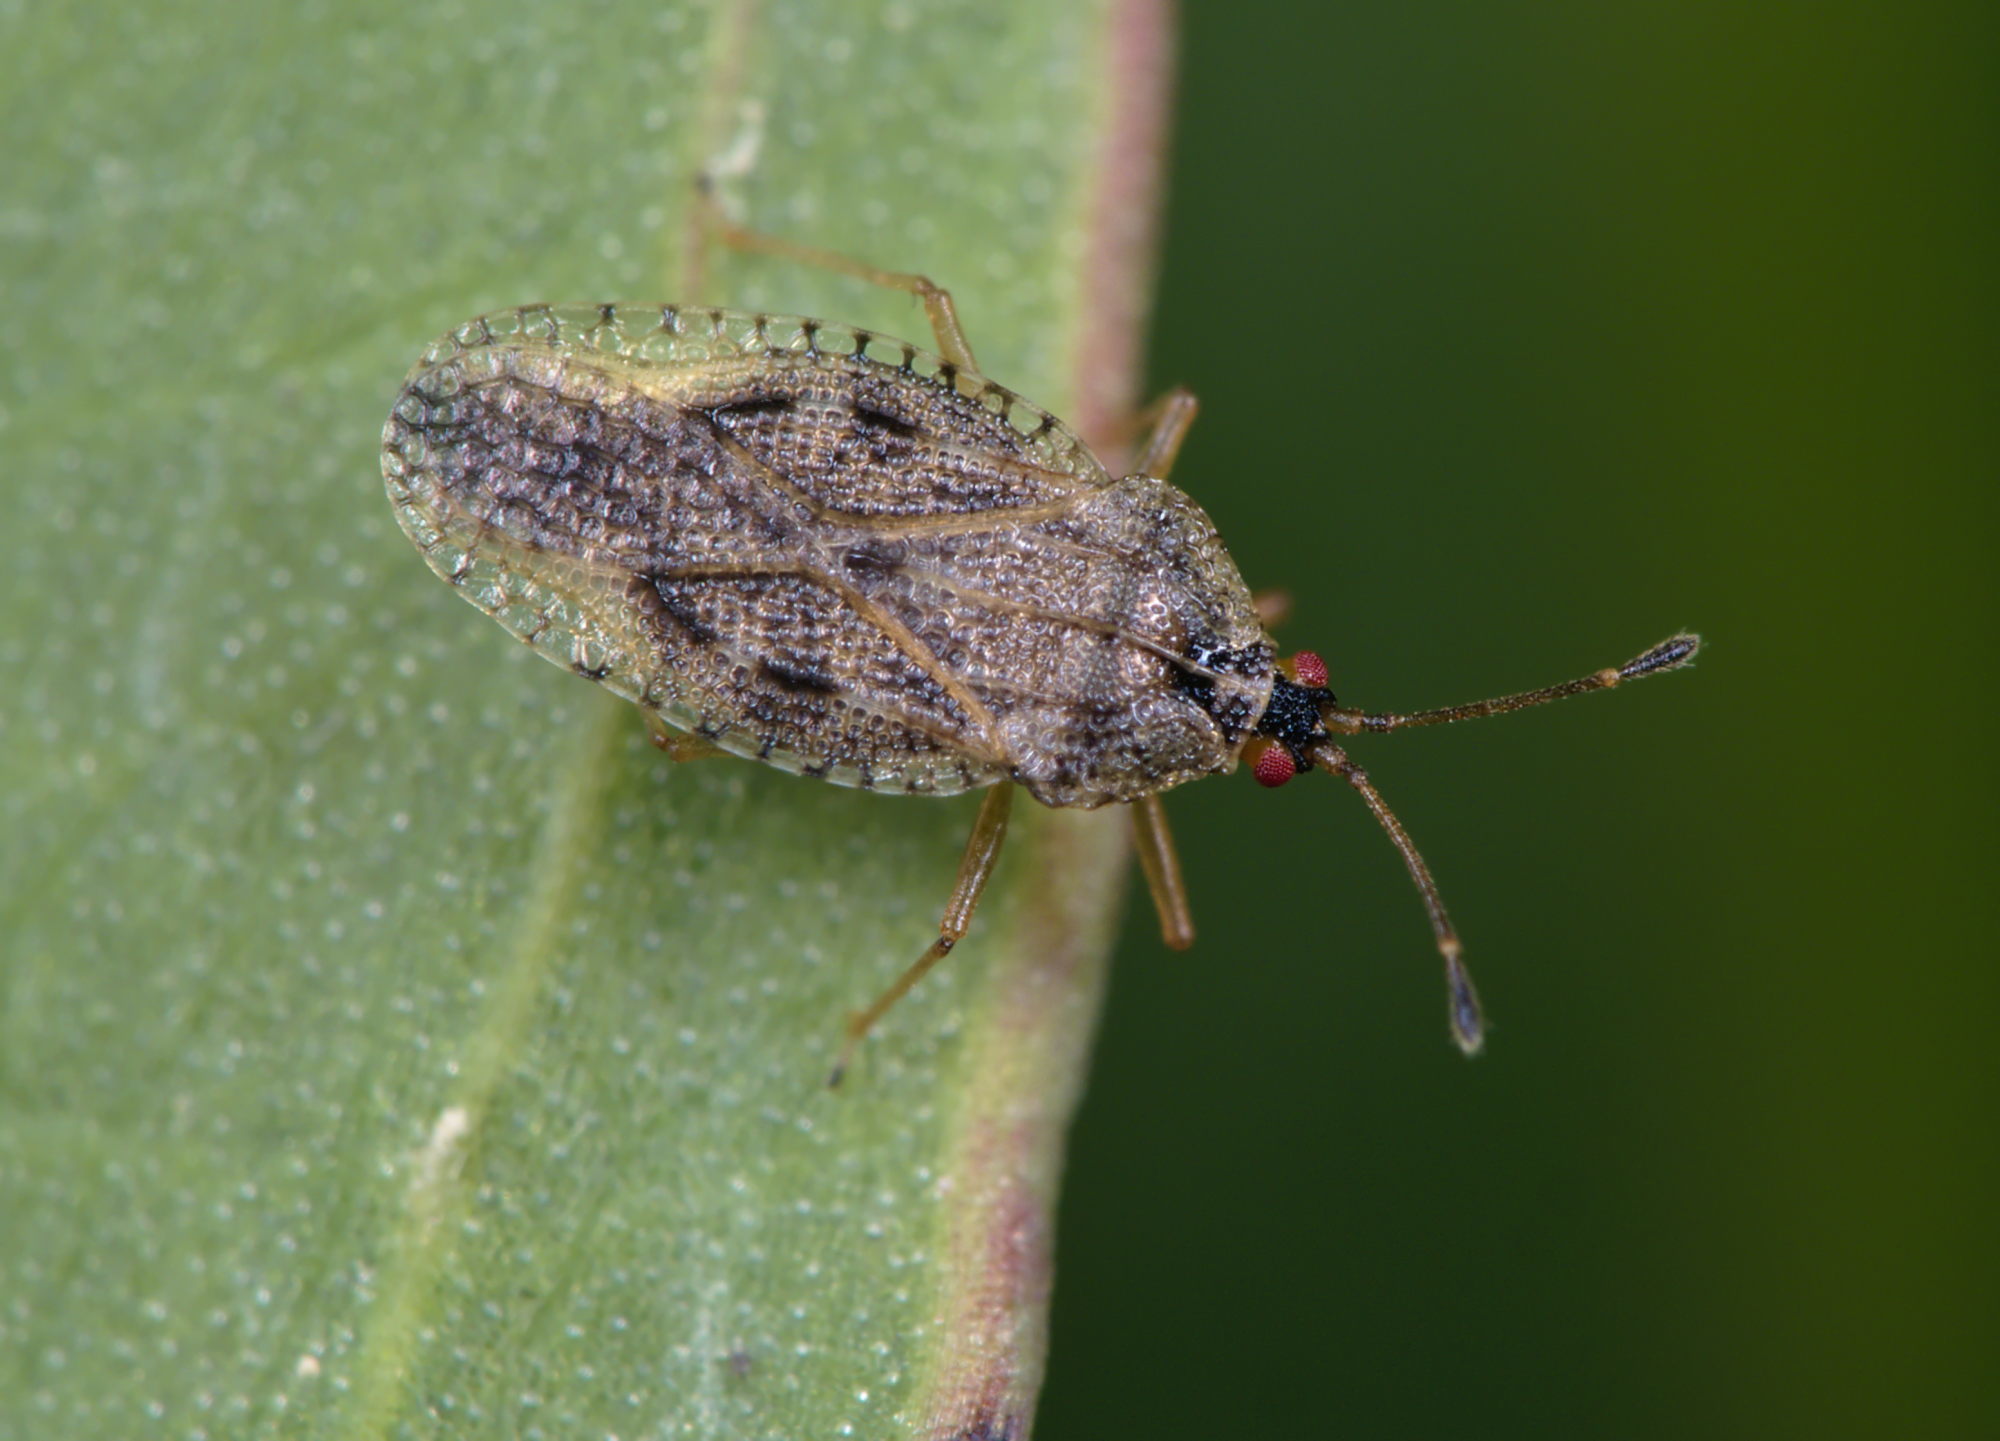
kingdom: Animalia
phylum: Arthropoda
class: Insecta
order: Hemiptera
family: Tingidae
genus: Dictyla
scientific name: Dictyla convergens
